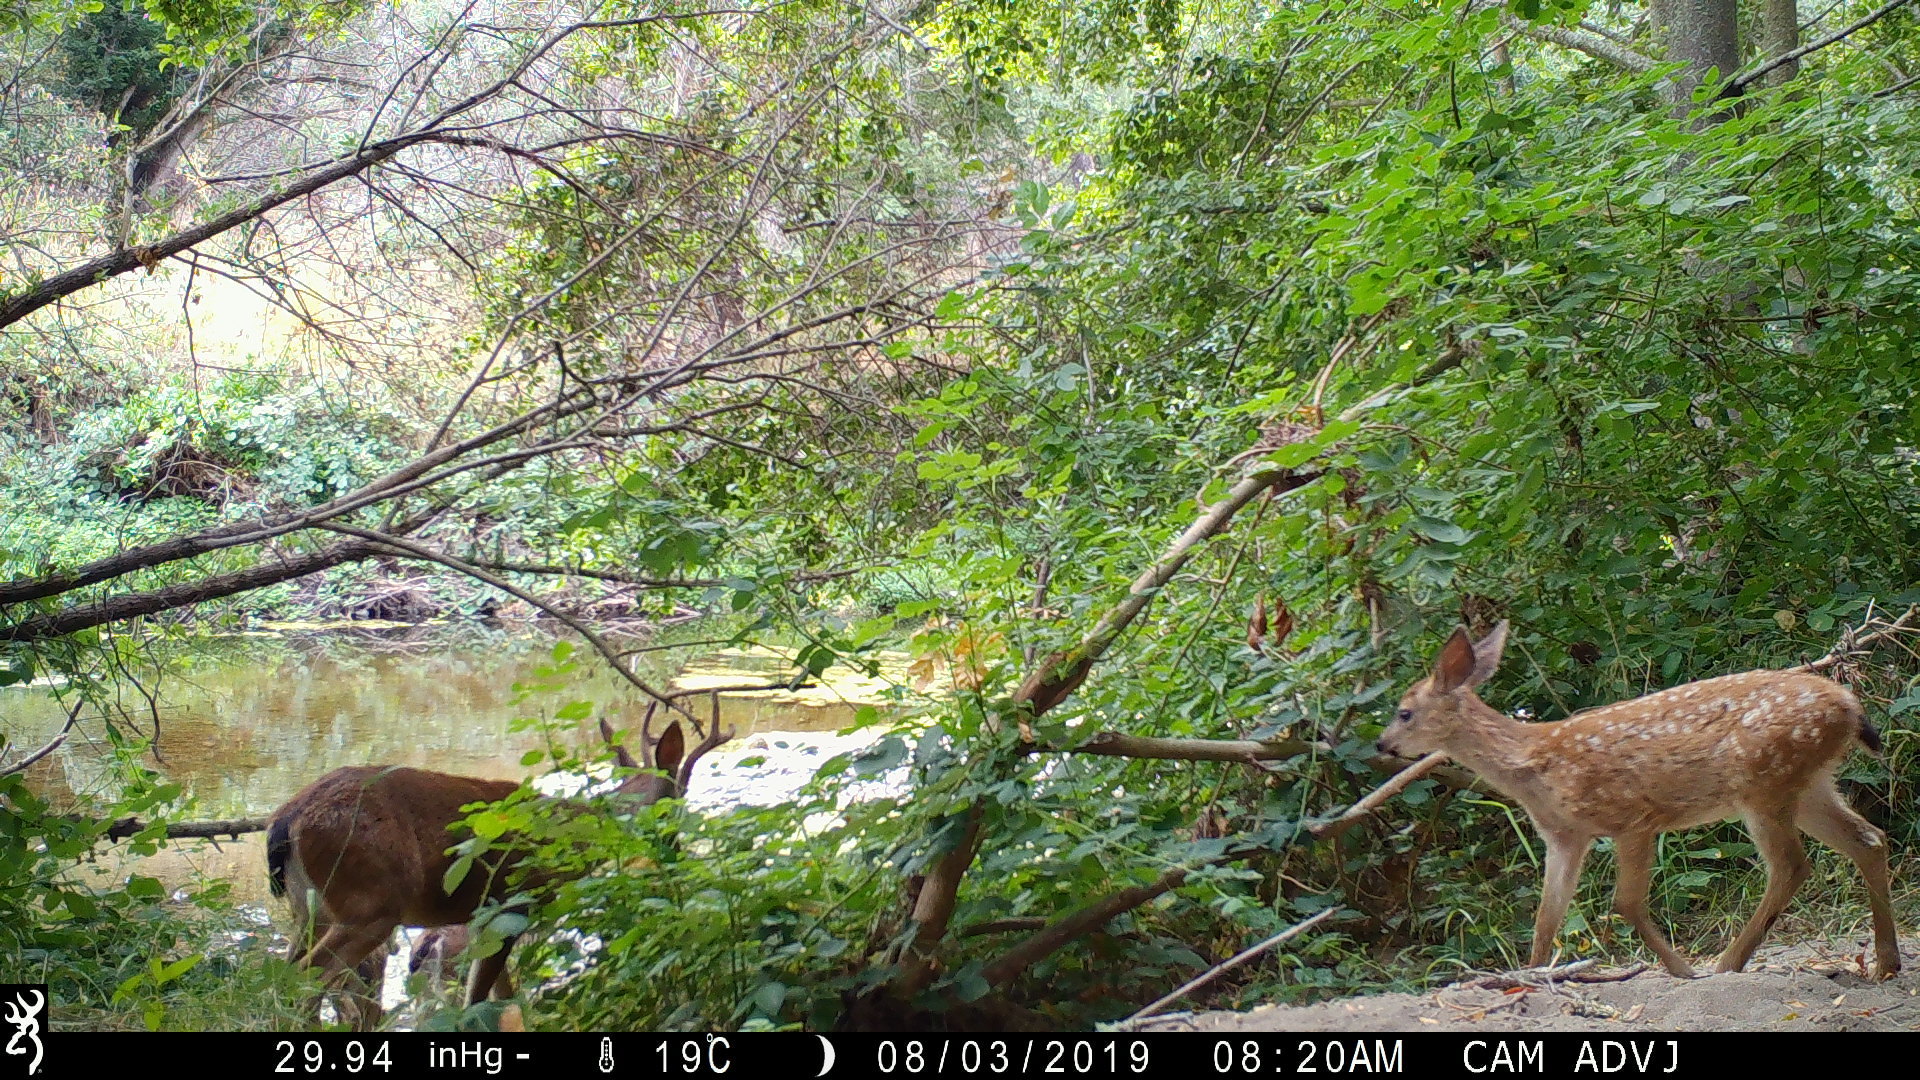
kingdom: Animalia
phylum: Chordata
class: Mammalia
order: Artiodactyla
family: Cervidae
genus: Odocoileus
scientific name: Odocoileus hemionus
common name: Mule deer
